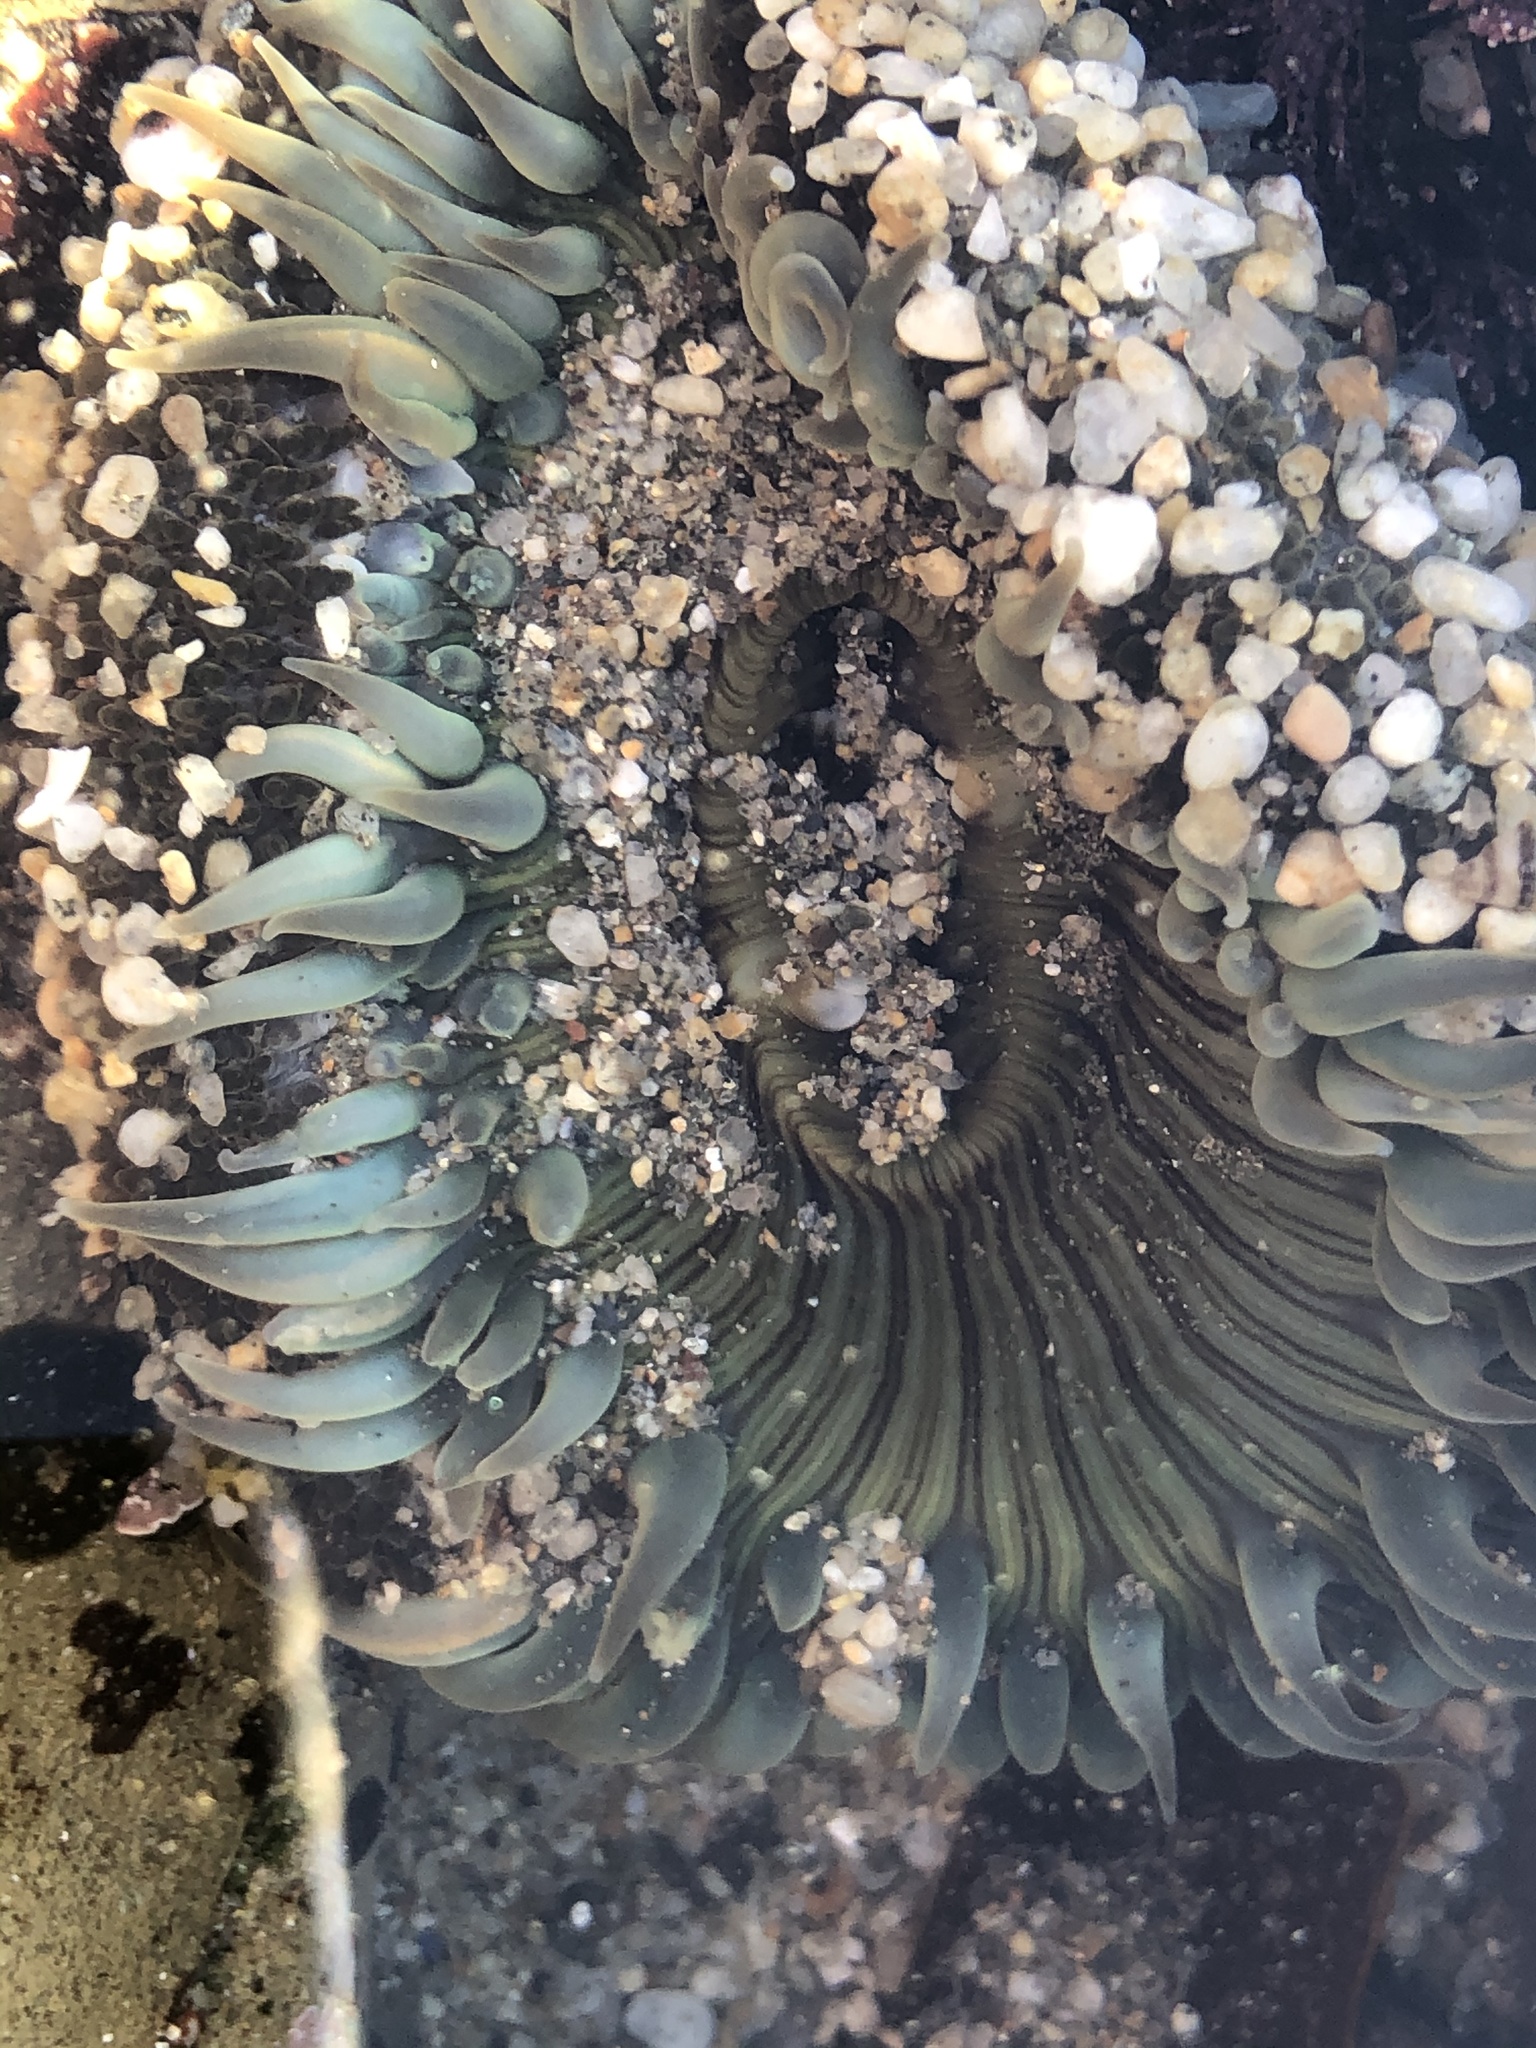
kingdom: Animalia
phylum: Cnidaria
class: Anthozoa
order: Actiniaria
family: Actiniidae
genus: Anthopleura
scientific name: Anthopleura sola
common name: Sun anemone
